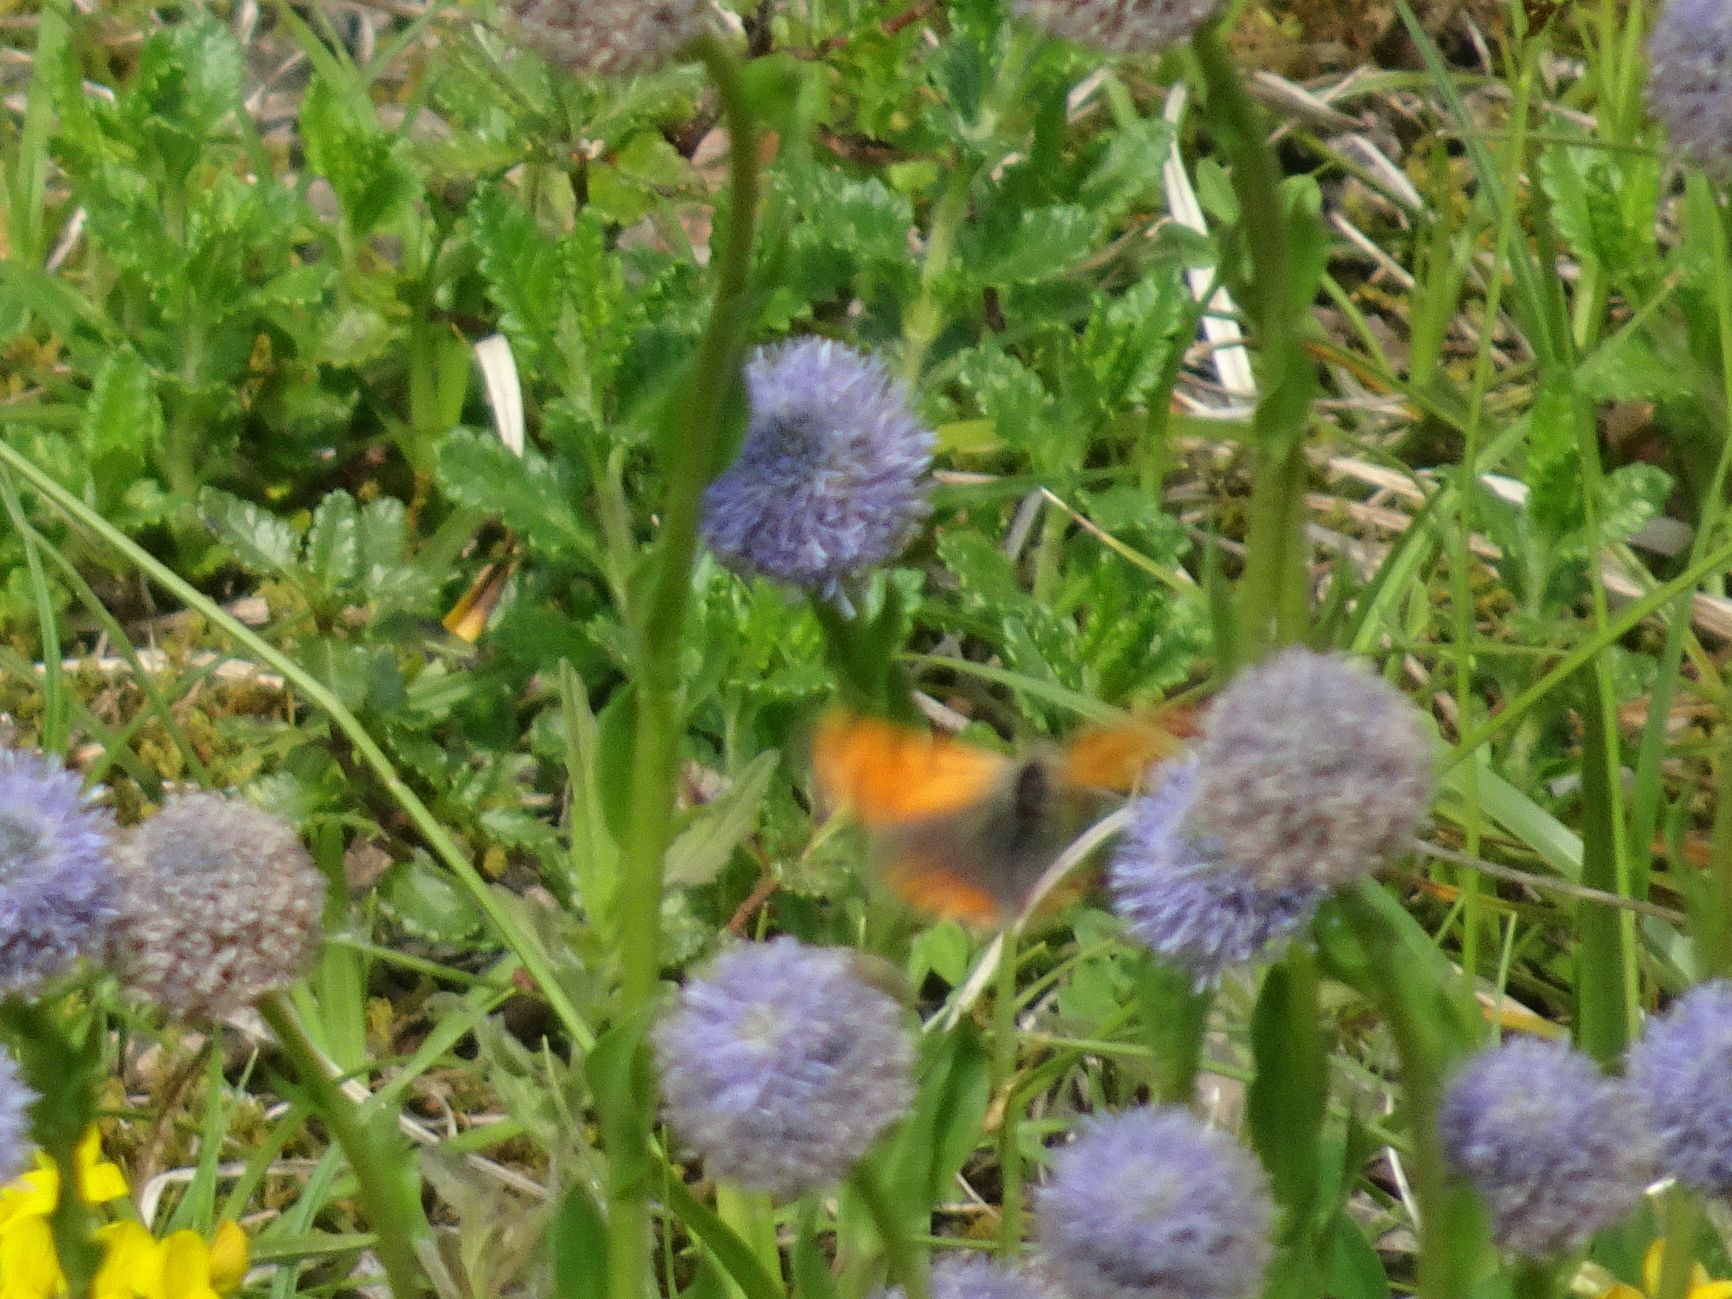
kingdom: Animalia
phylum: Arthropoda
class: Insecta
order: Lepidoptera
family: Lycaenidae
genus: Lycaena
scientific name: Lycaena phlaeas
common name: Small copper
